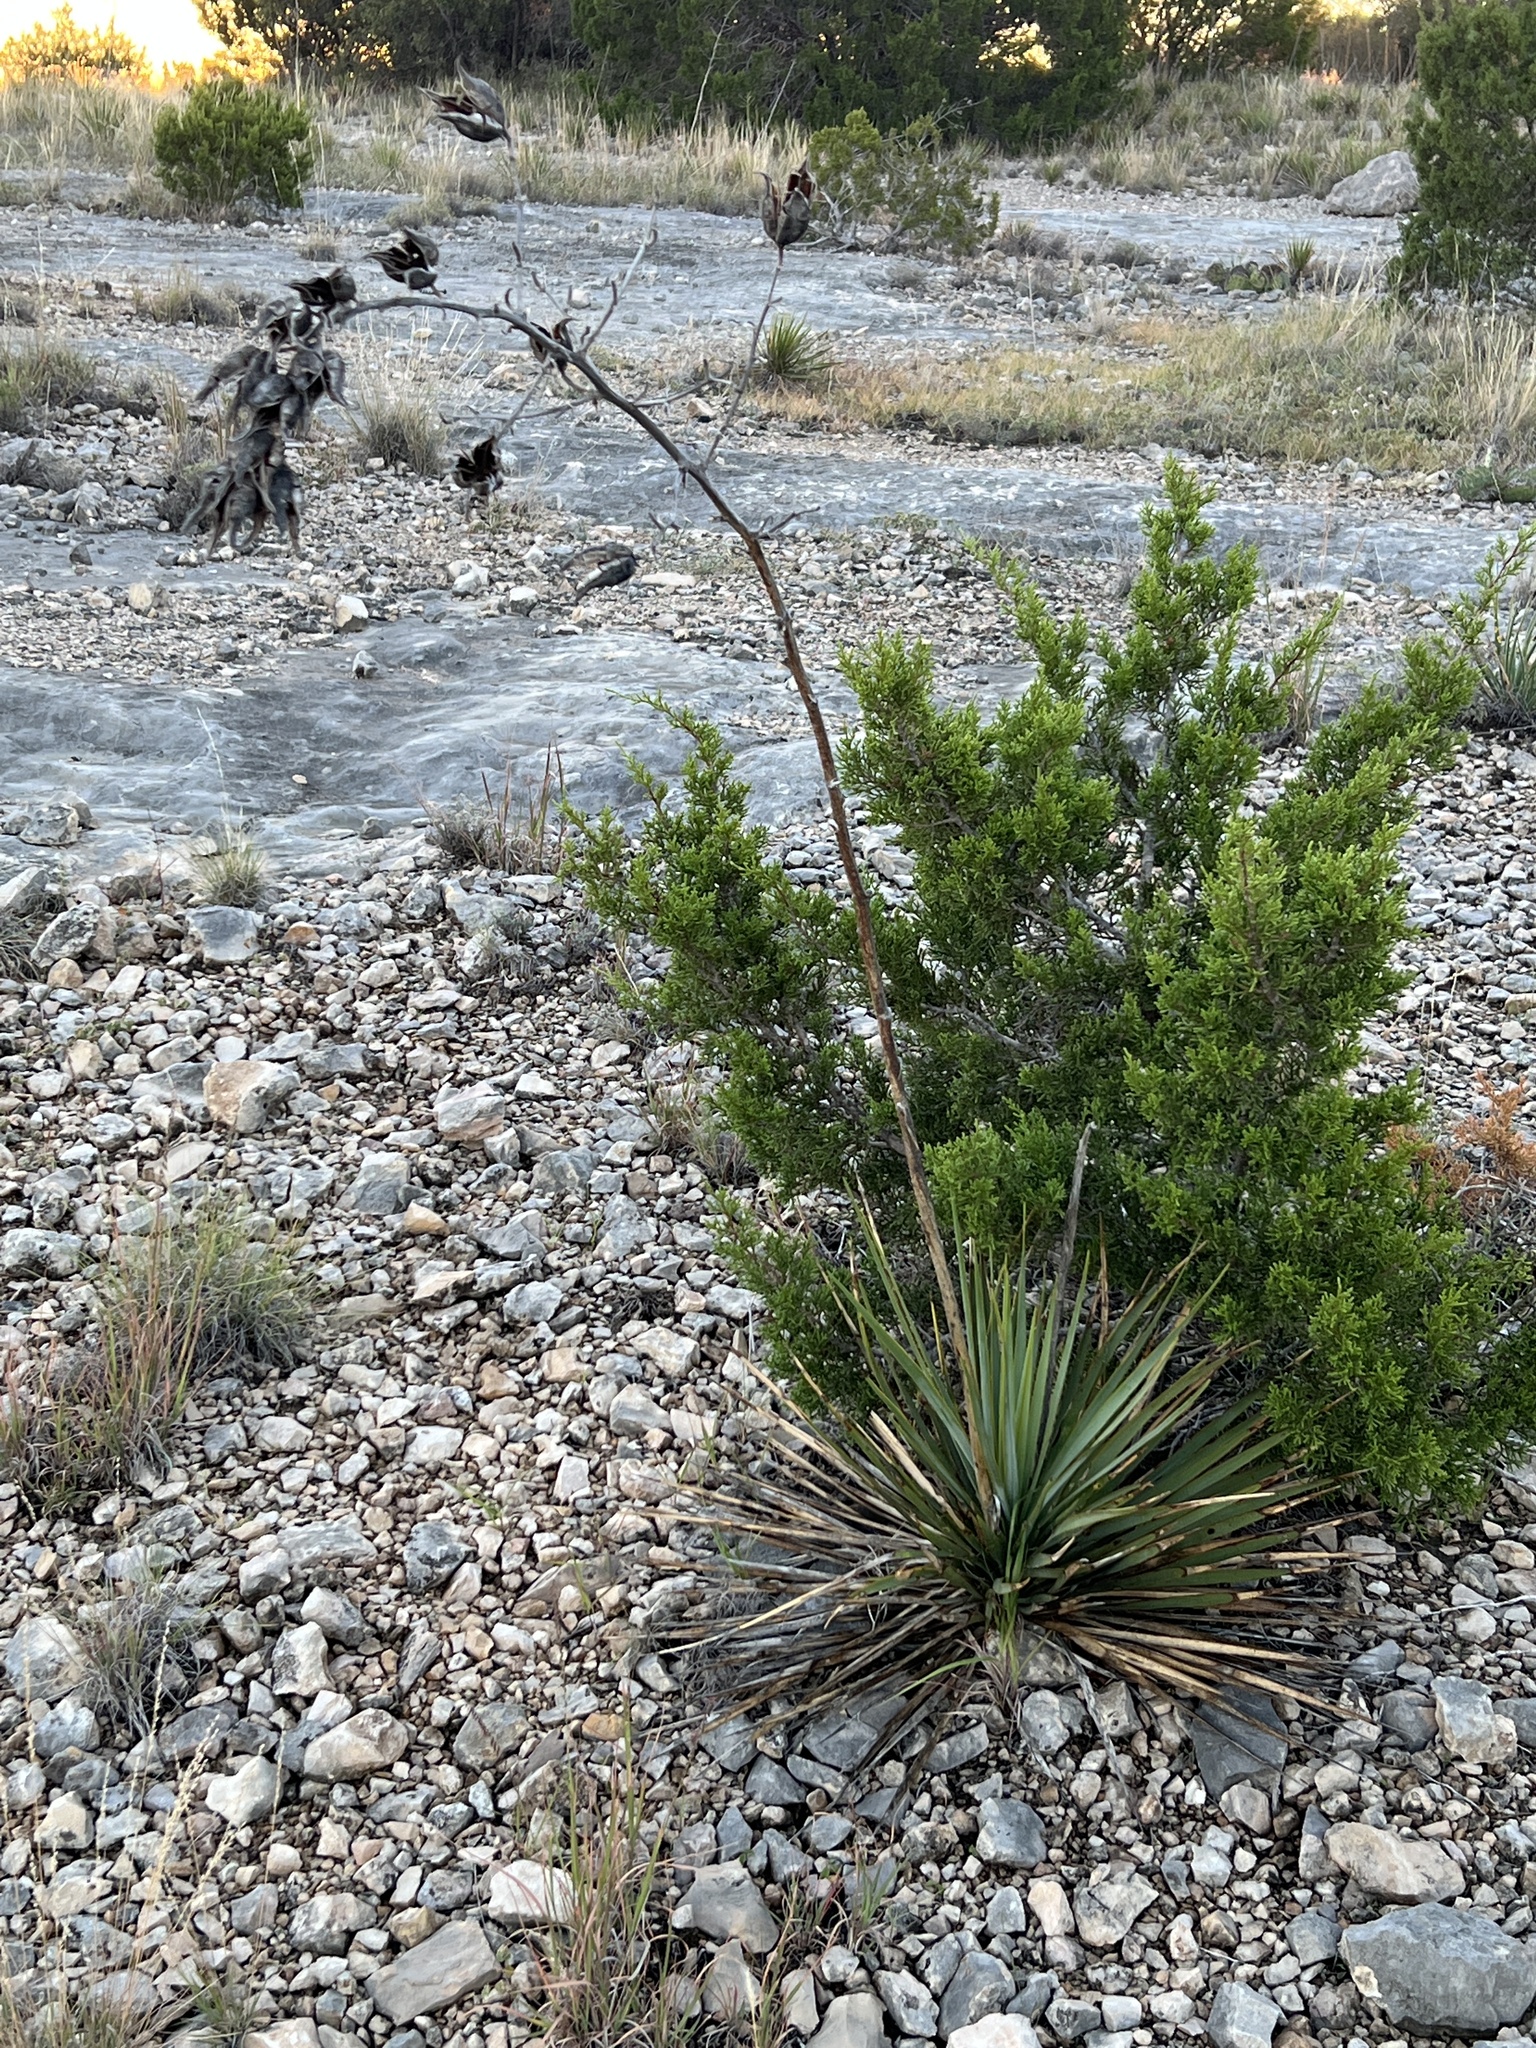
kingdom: Plantae
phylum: Tracheophyta
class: Liliopsida
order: Asparagales
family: Asparagaceae
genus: Yucca
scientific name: Yucca reverchonii
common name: San angelo yucca
